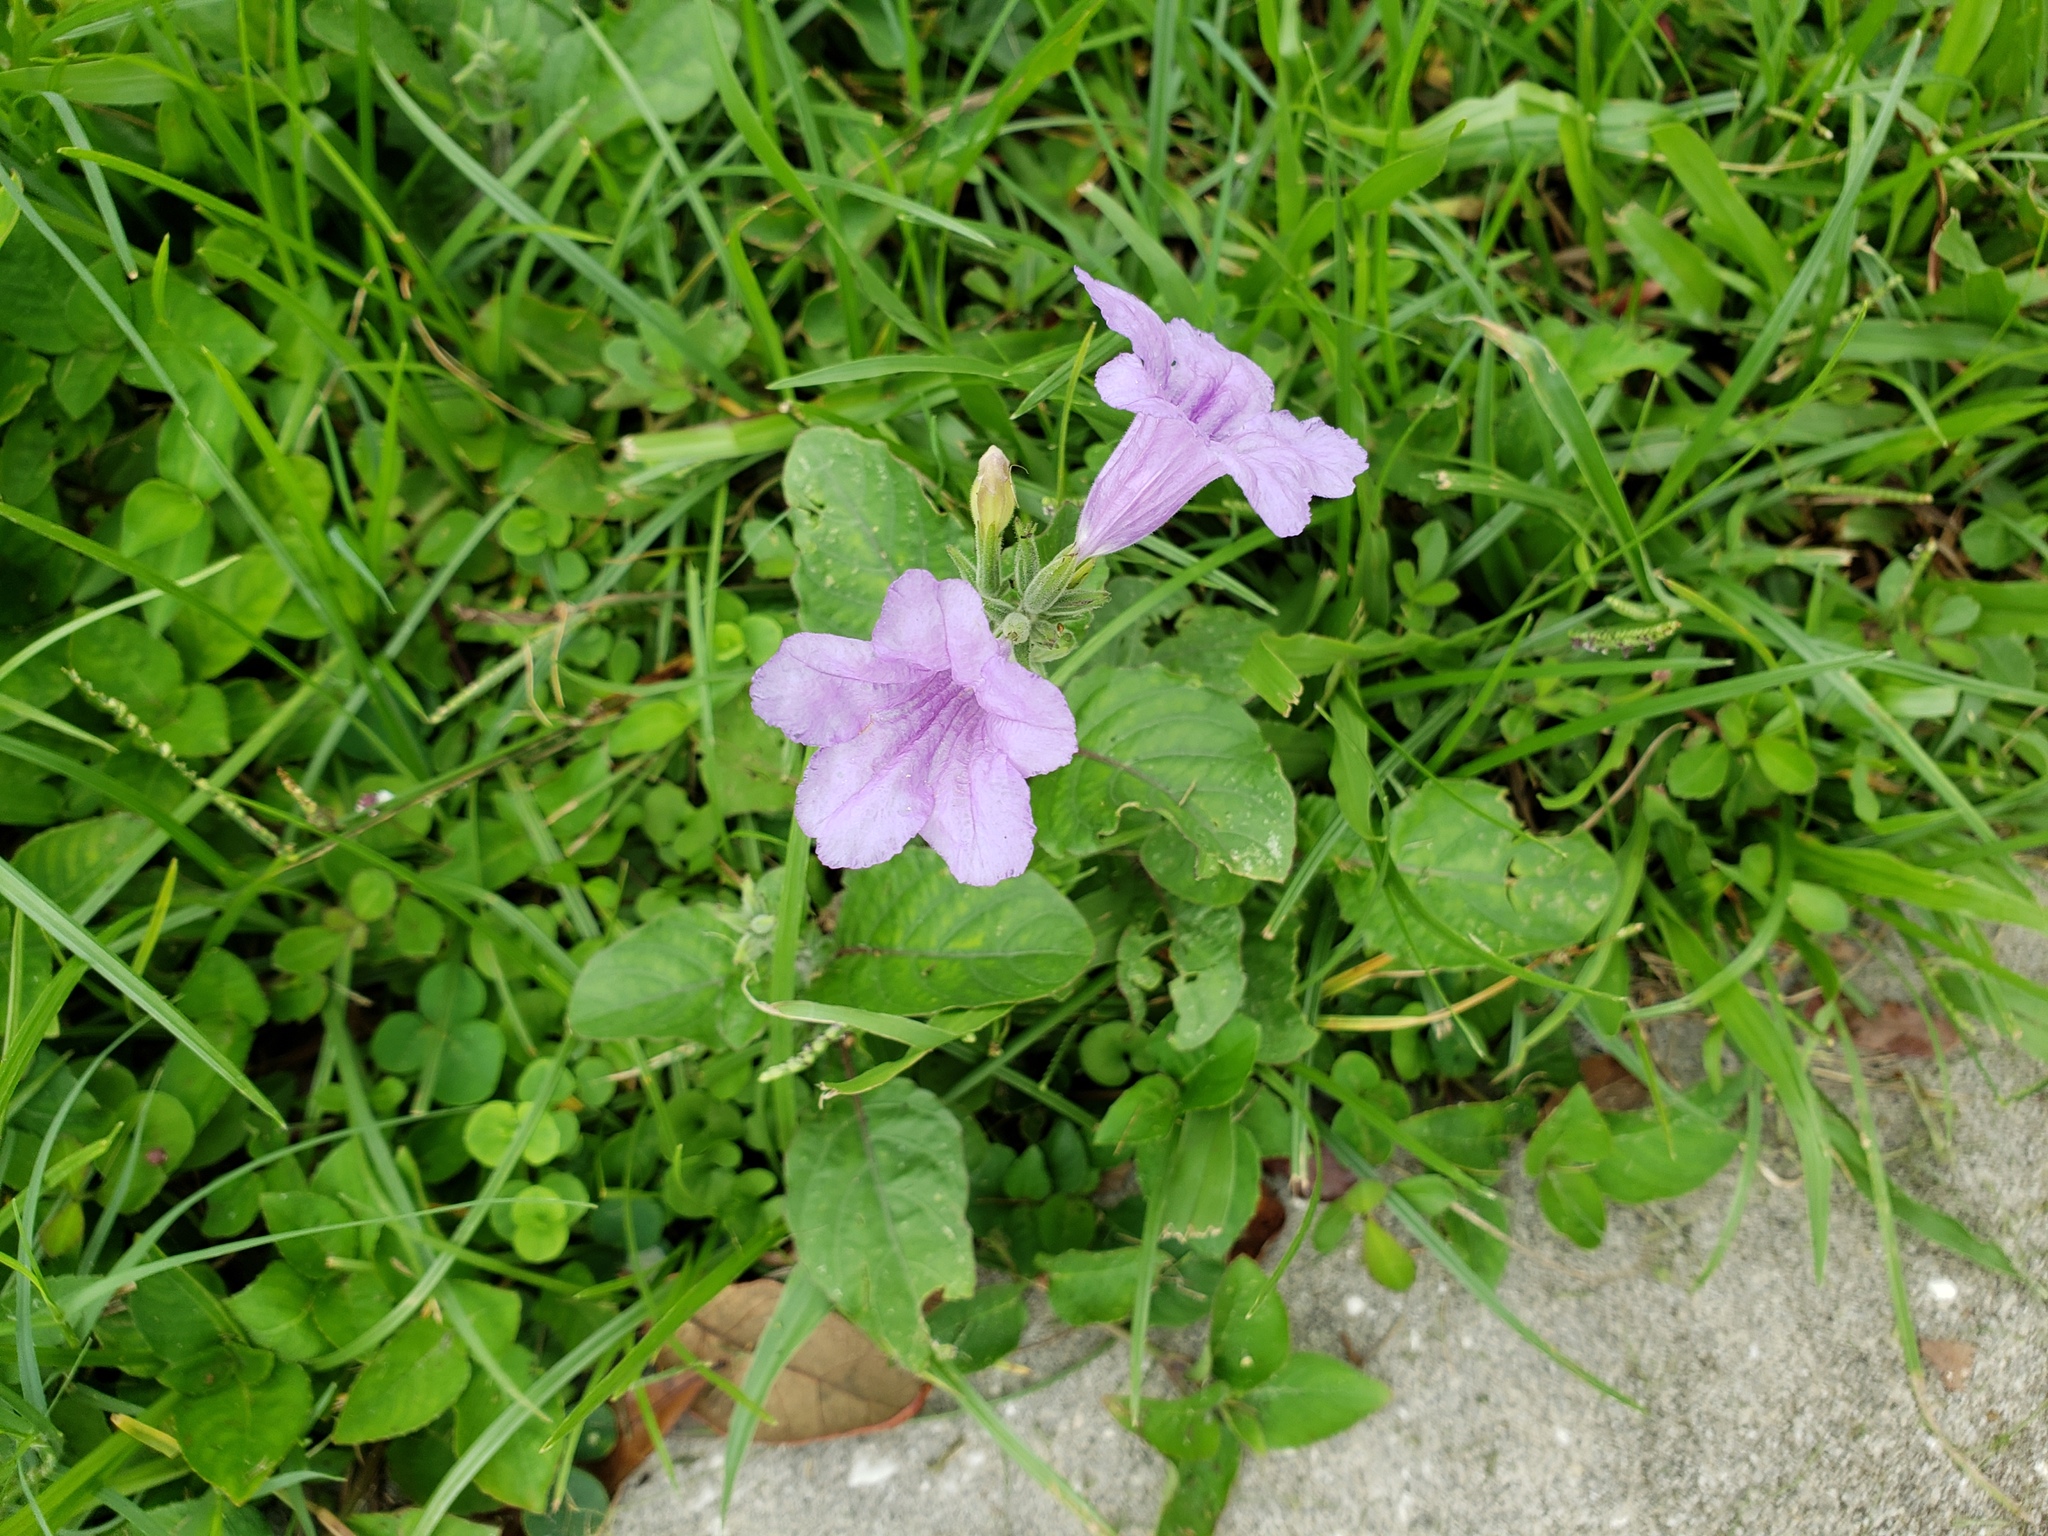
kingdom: Plantae
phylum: Tracheophyta
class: Magnoliopsida
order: Lamiales
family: Acanthaceae
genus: Ruellia
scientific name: Ruellia ciliatiflora
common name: Hairyflower wild petunia
